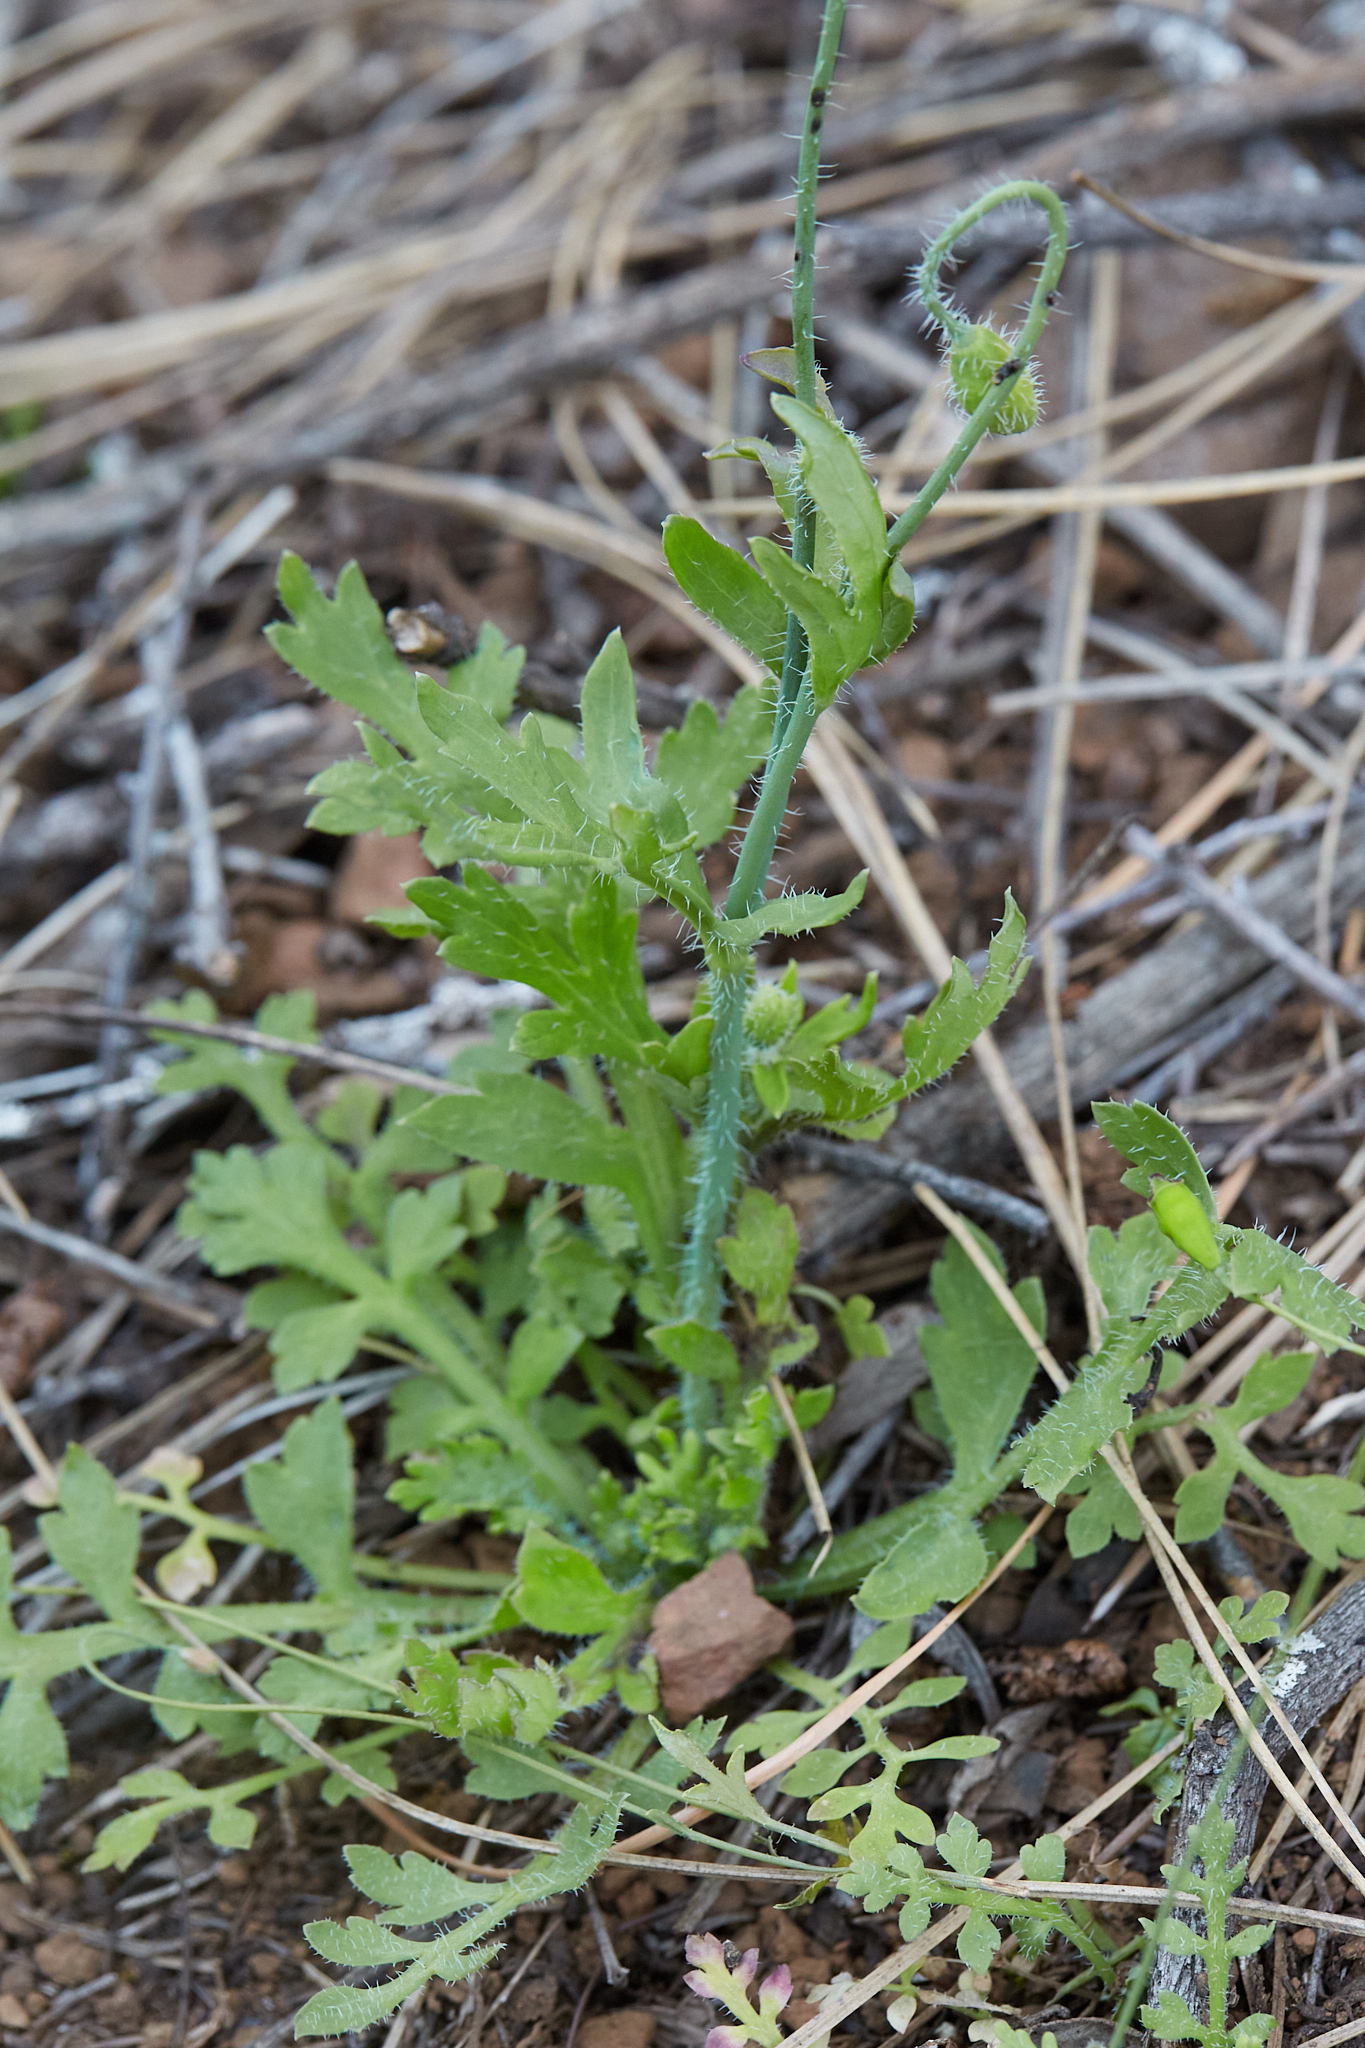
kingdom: Plantae
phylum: Tracheophyta
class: Magnoliopsida
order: Ranunculales
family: Papaveraceae
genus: Papaver
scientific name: Papaver californicum
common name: Fire poppy
